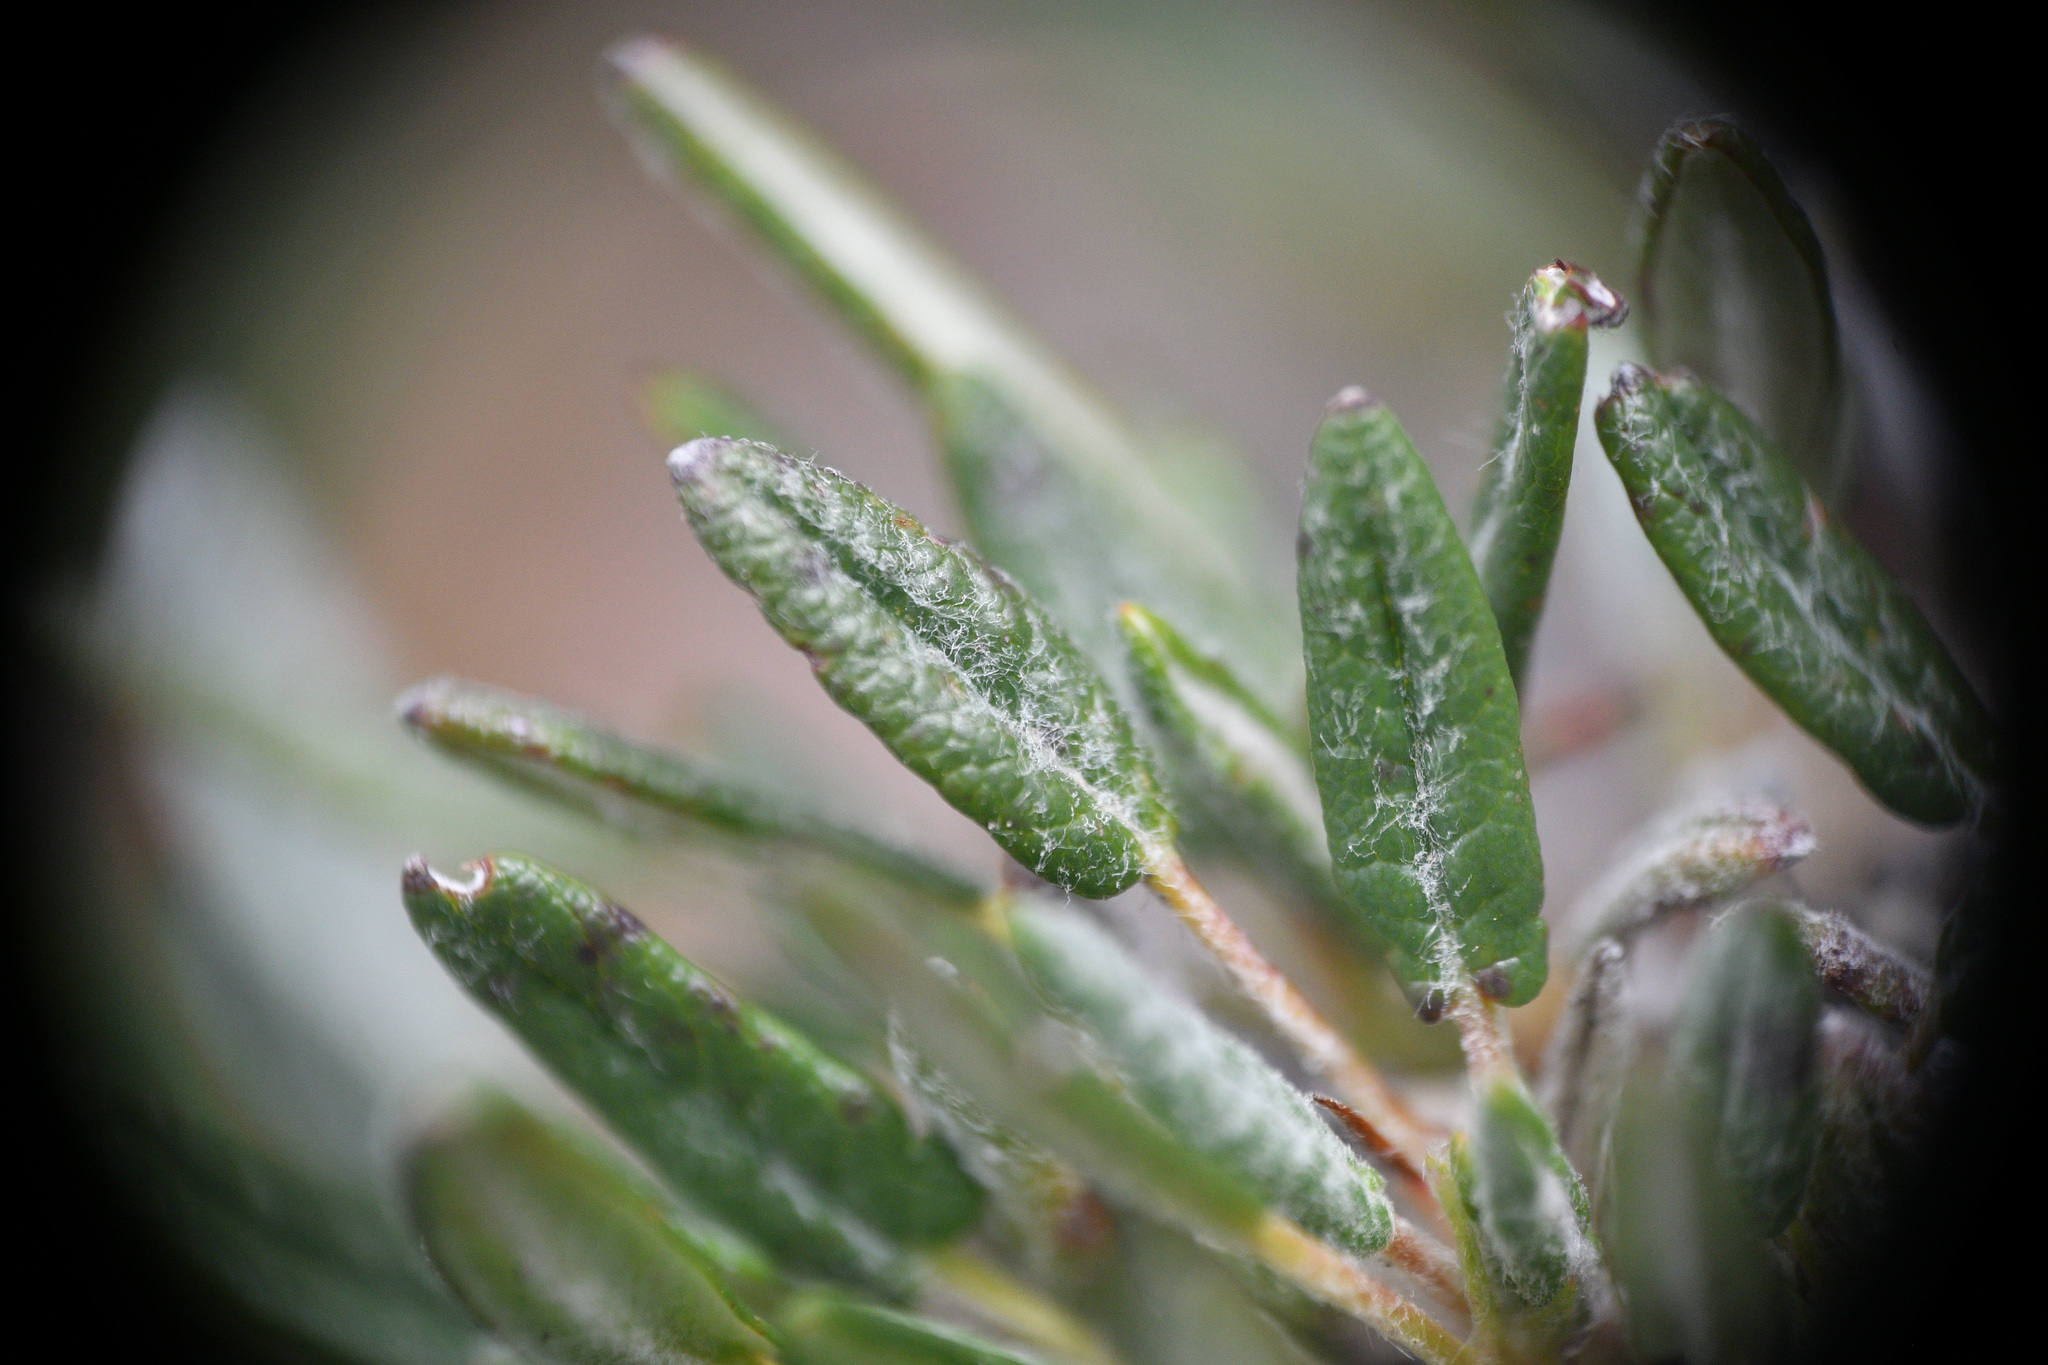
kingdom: Plantae
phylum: Tracheophyta
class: Magnoliopsida
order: Rosales
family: Rosaceae
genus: Dryas
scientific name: Dryas integrifolia
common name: Entire-leaved mountain avens
